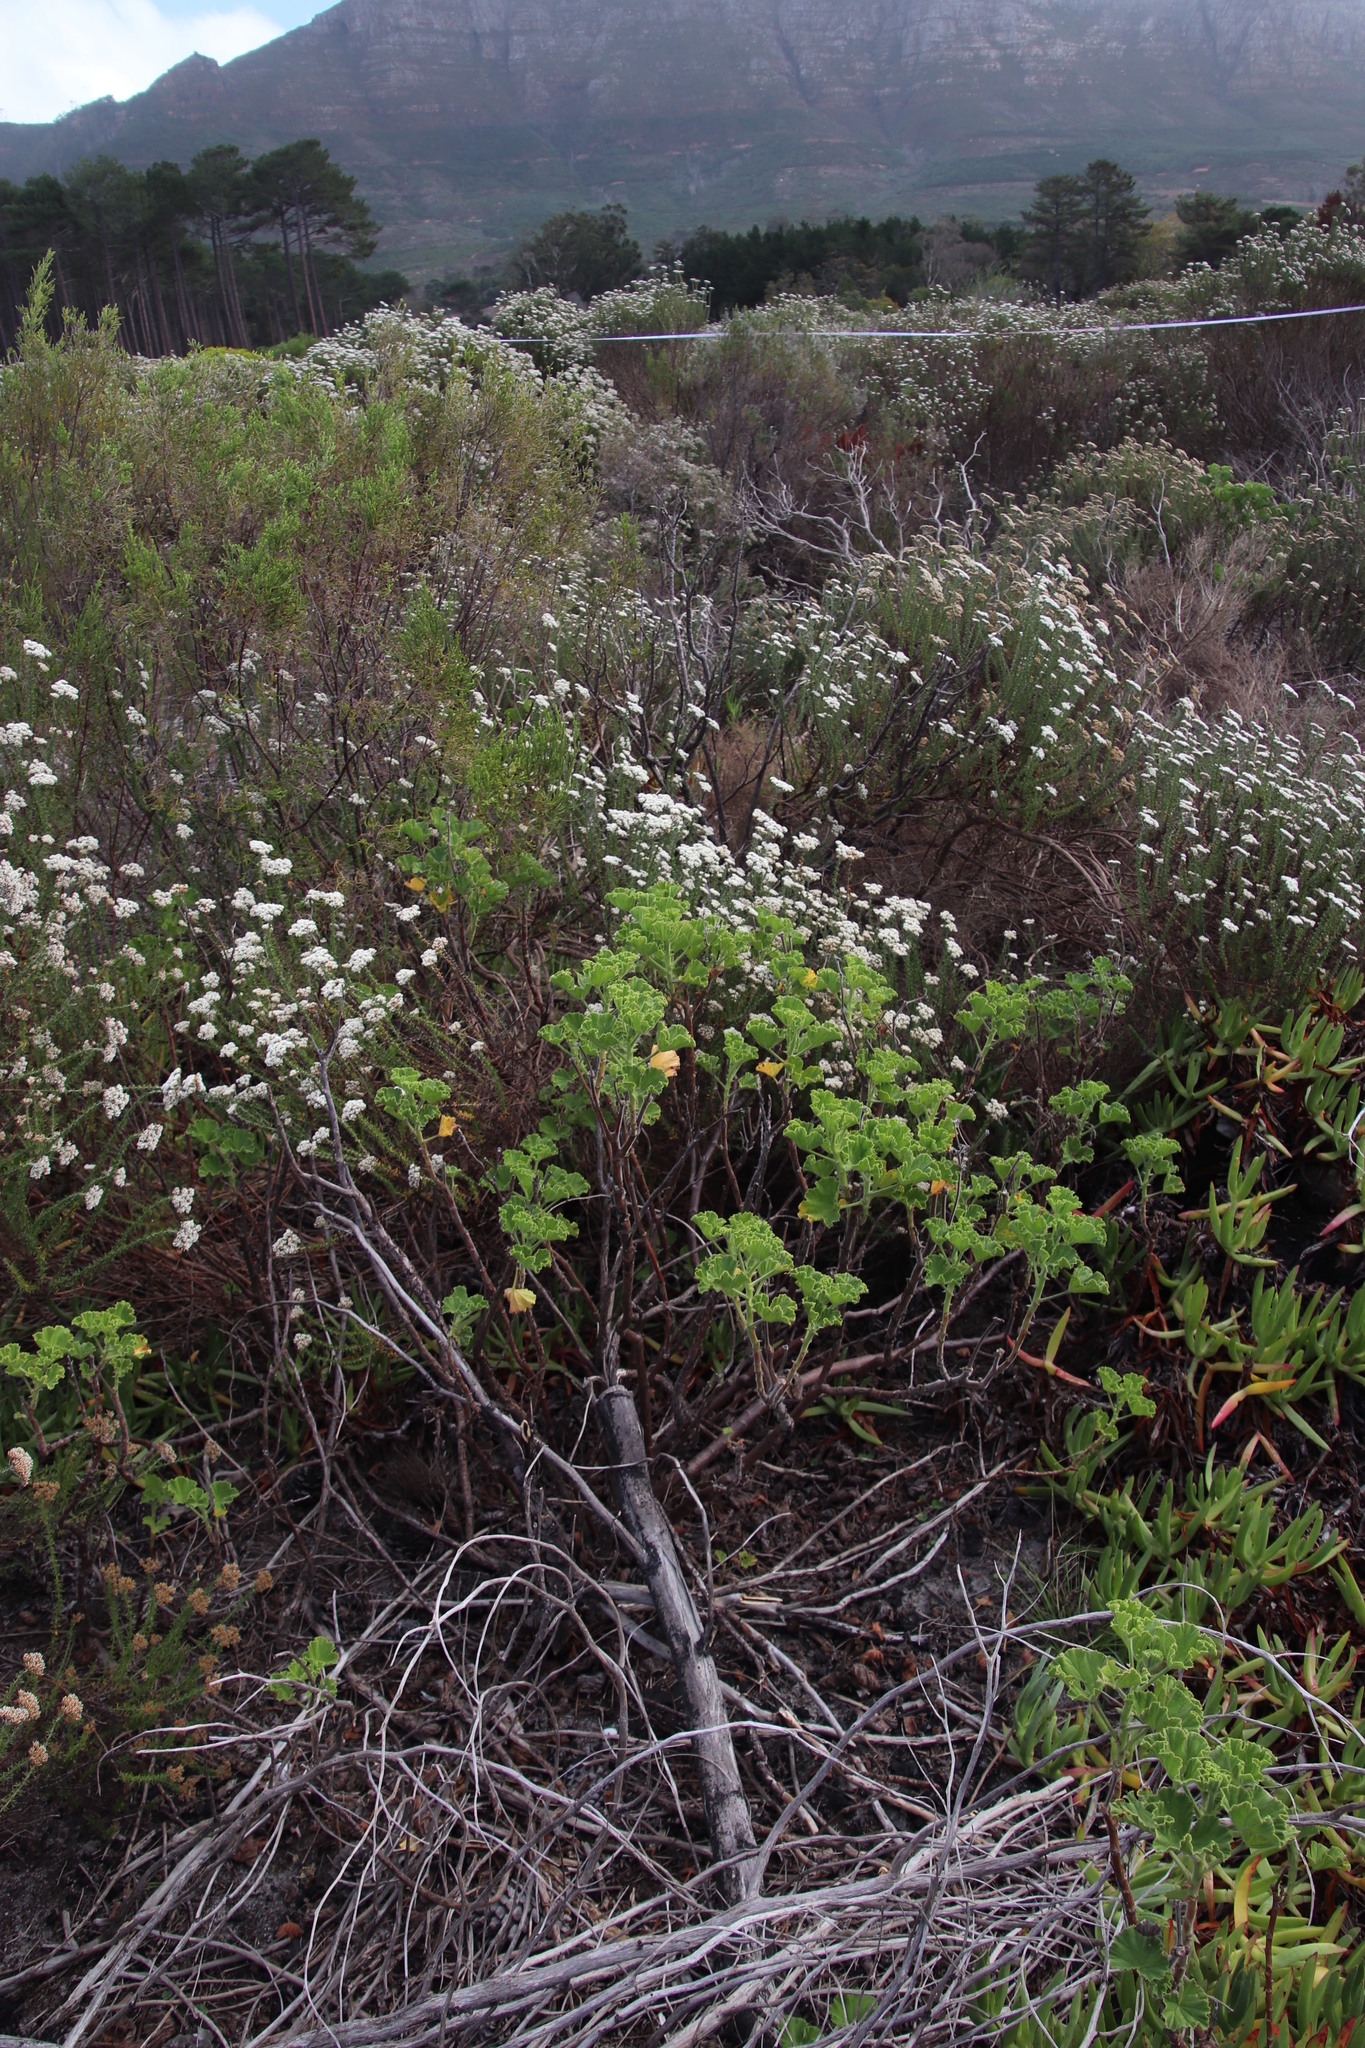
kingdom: Plantae
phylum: Tracheophyta
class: Magnoliopsida
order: Geraniales
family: Geraniaceae
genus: Pelargonium
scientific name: Pelargonium cucullatum
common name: Tree pelargonium
